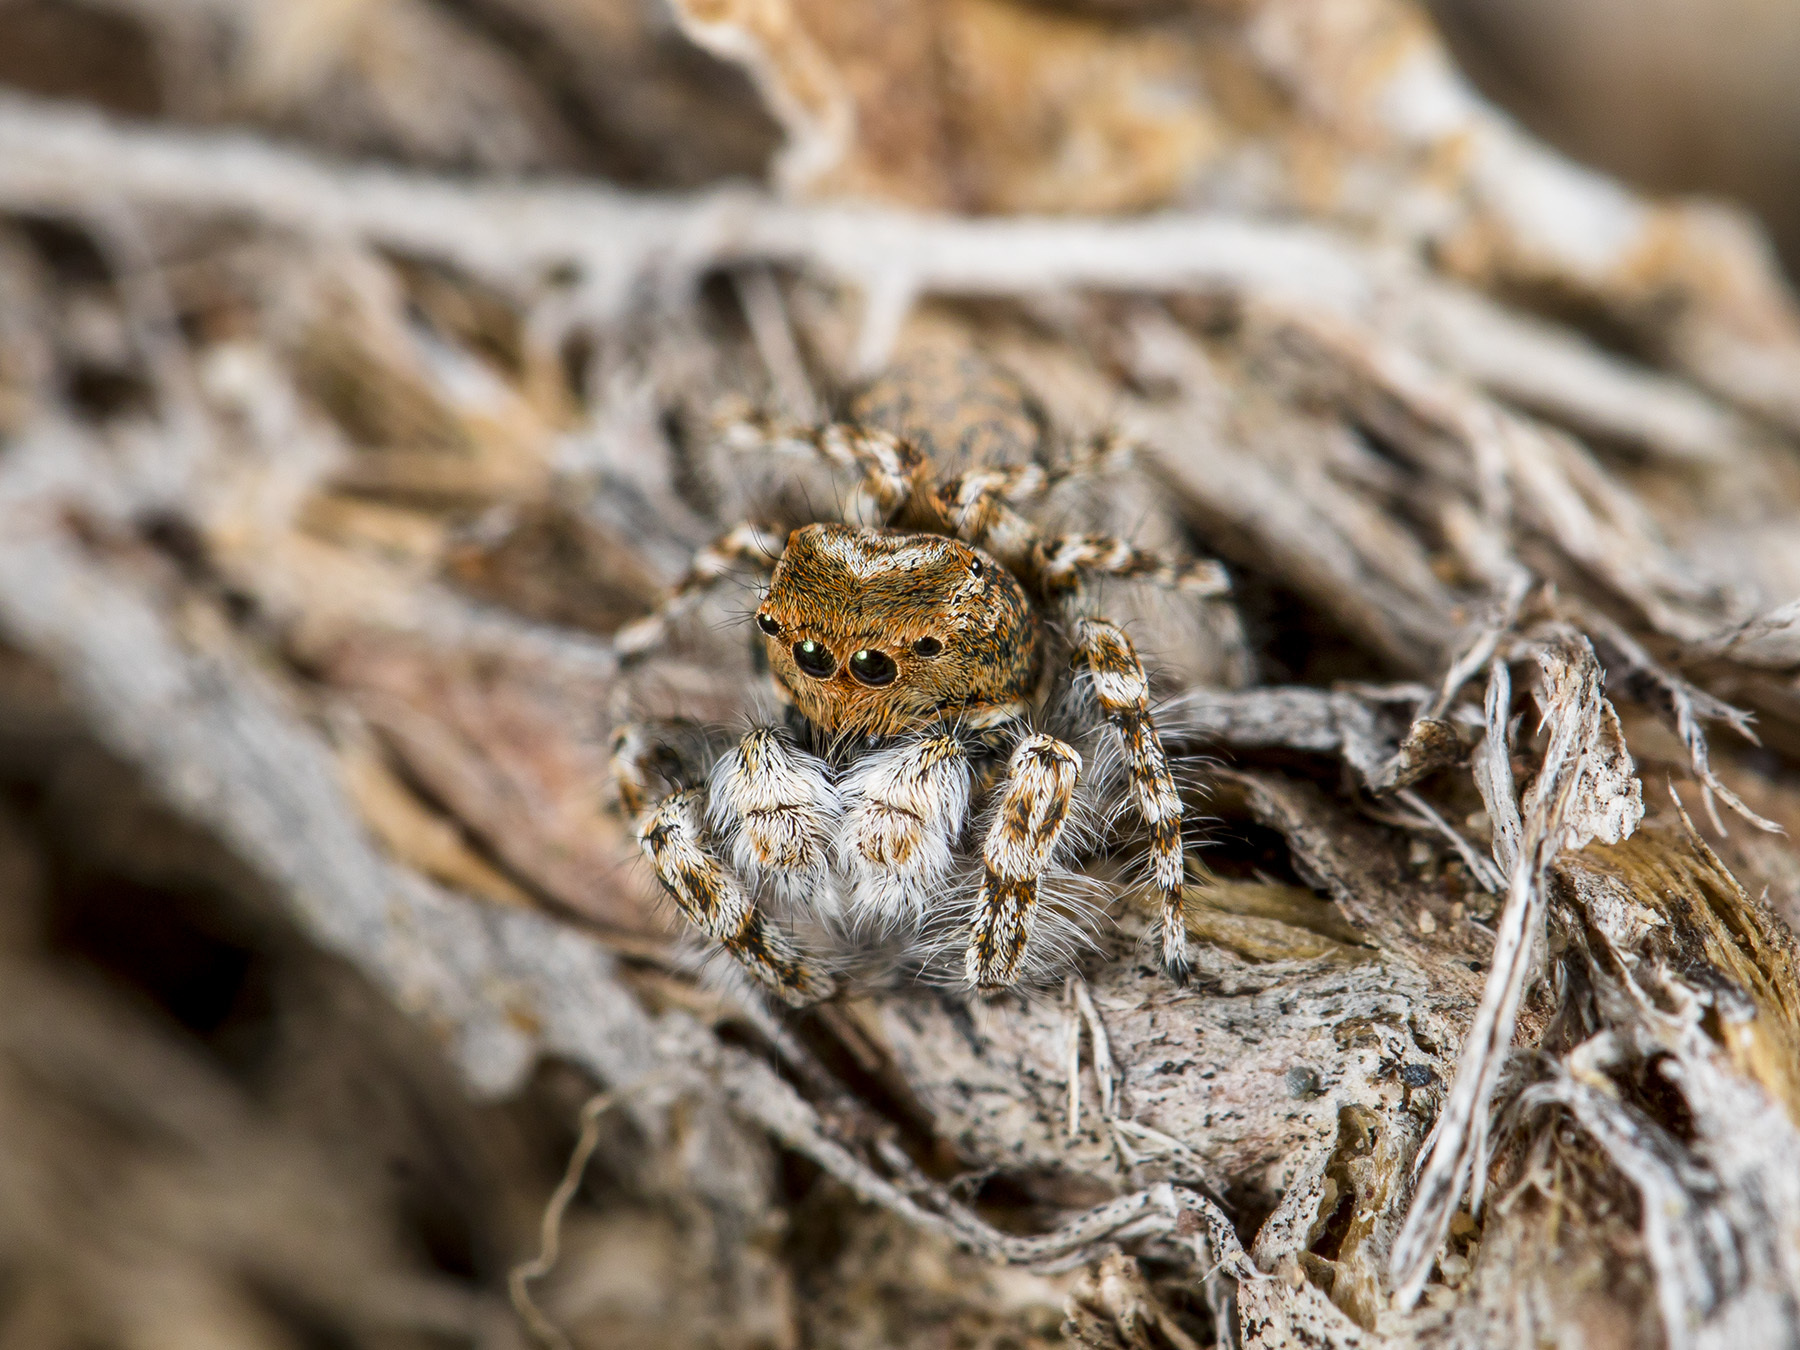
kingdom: Animalia
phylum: Arthropoda
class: Arachnida
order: Araneae
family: Salticidae
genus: Yllenus
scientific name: Yllenus uiguricus
